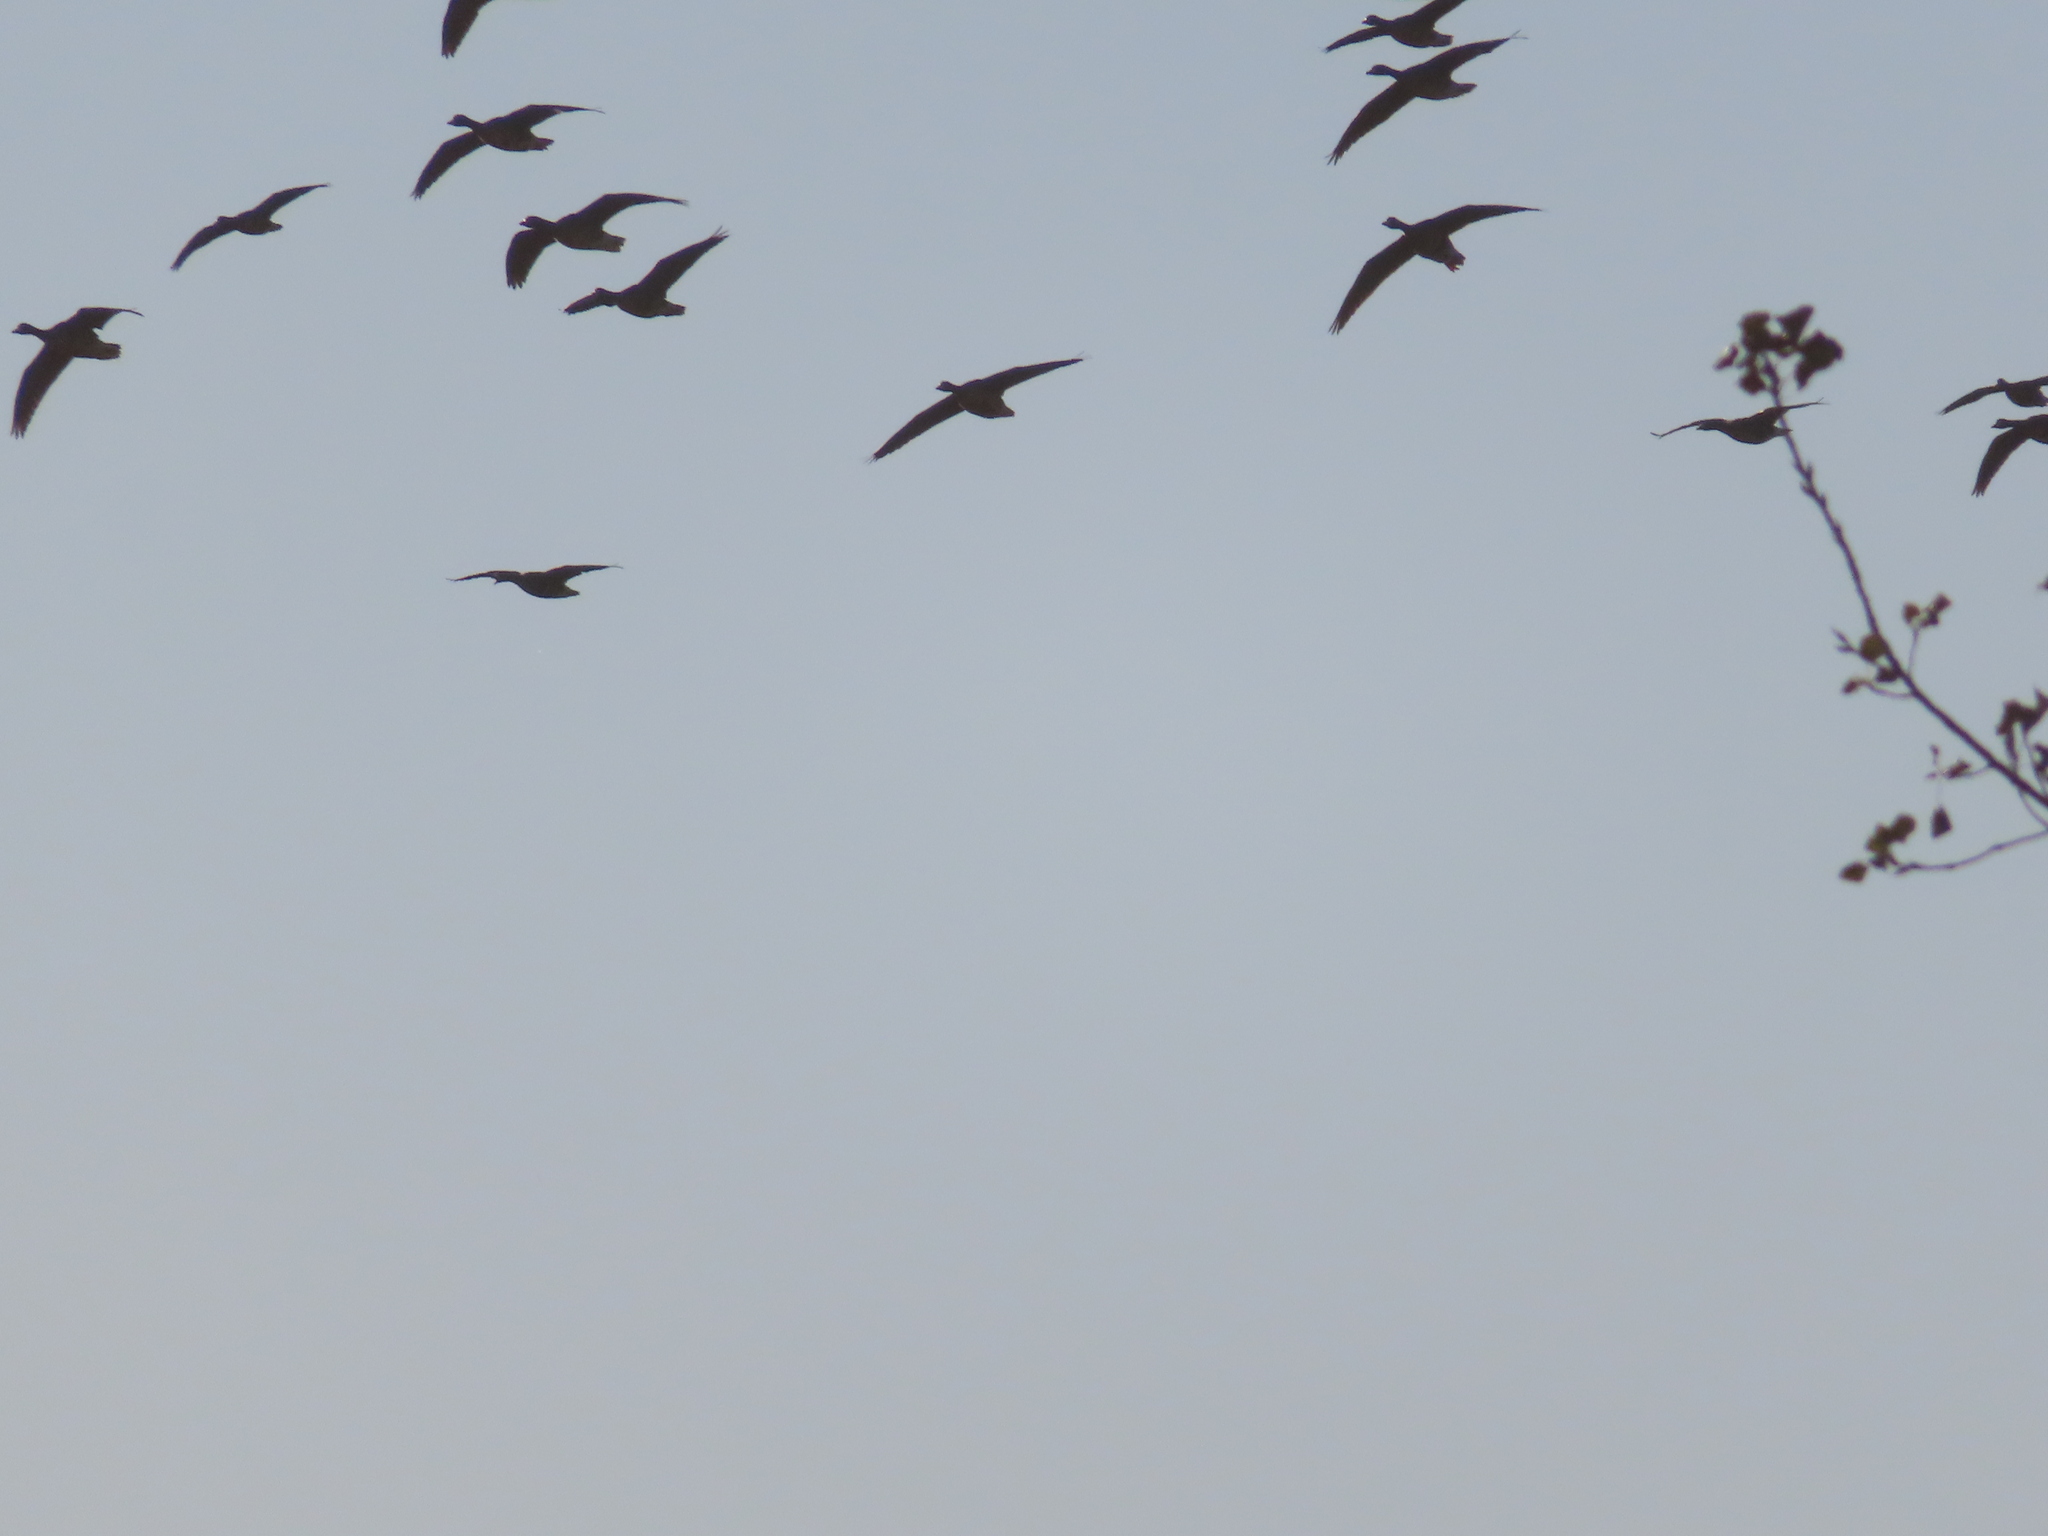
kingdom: Animalia
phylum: Chordata
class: Aves
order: Anseriformes
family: Anatidae
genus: Anser
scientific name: Anser caerulescens
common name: Snow goose
